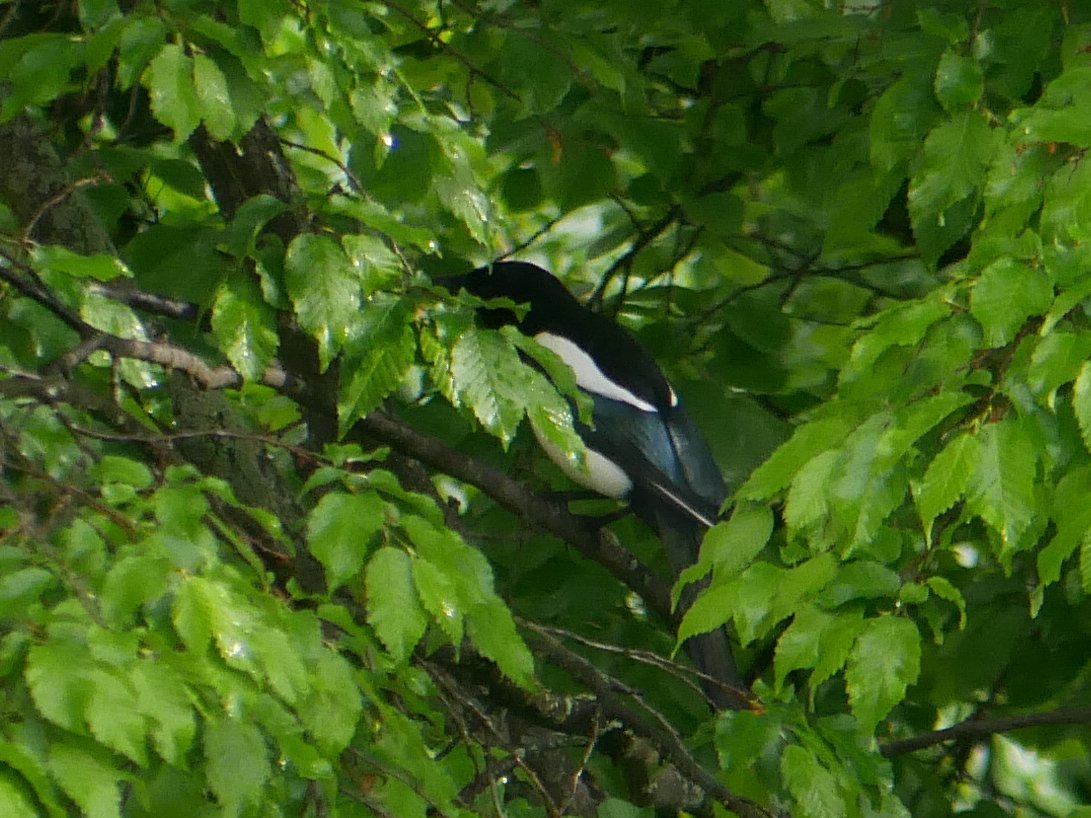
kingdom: Animalia
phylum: Chordata
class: Aves
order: Passeriformes
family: Corvidae
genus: Pica
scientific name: Pica pica
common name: Eurasian magpie
